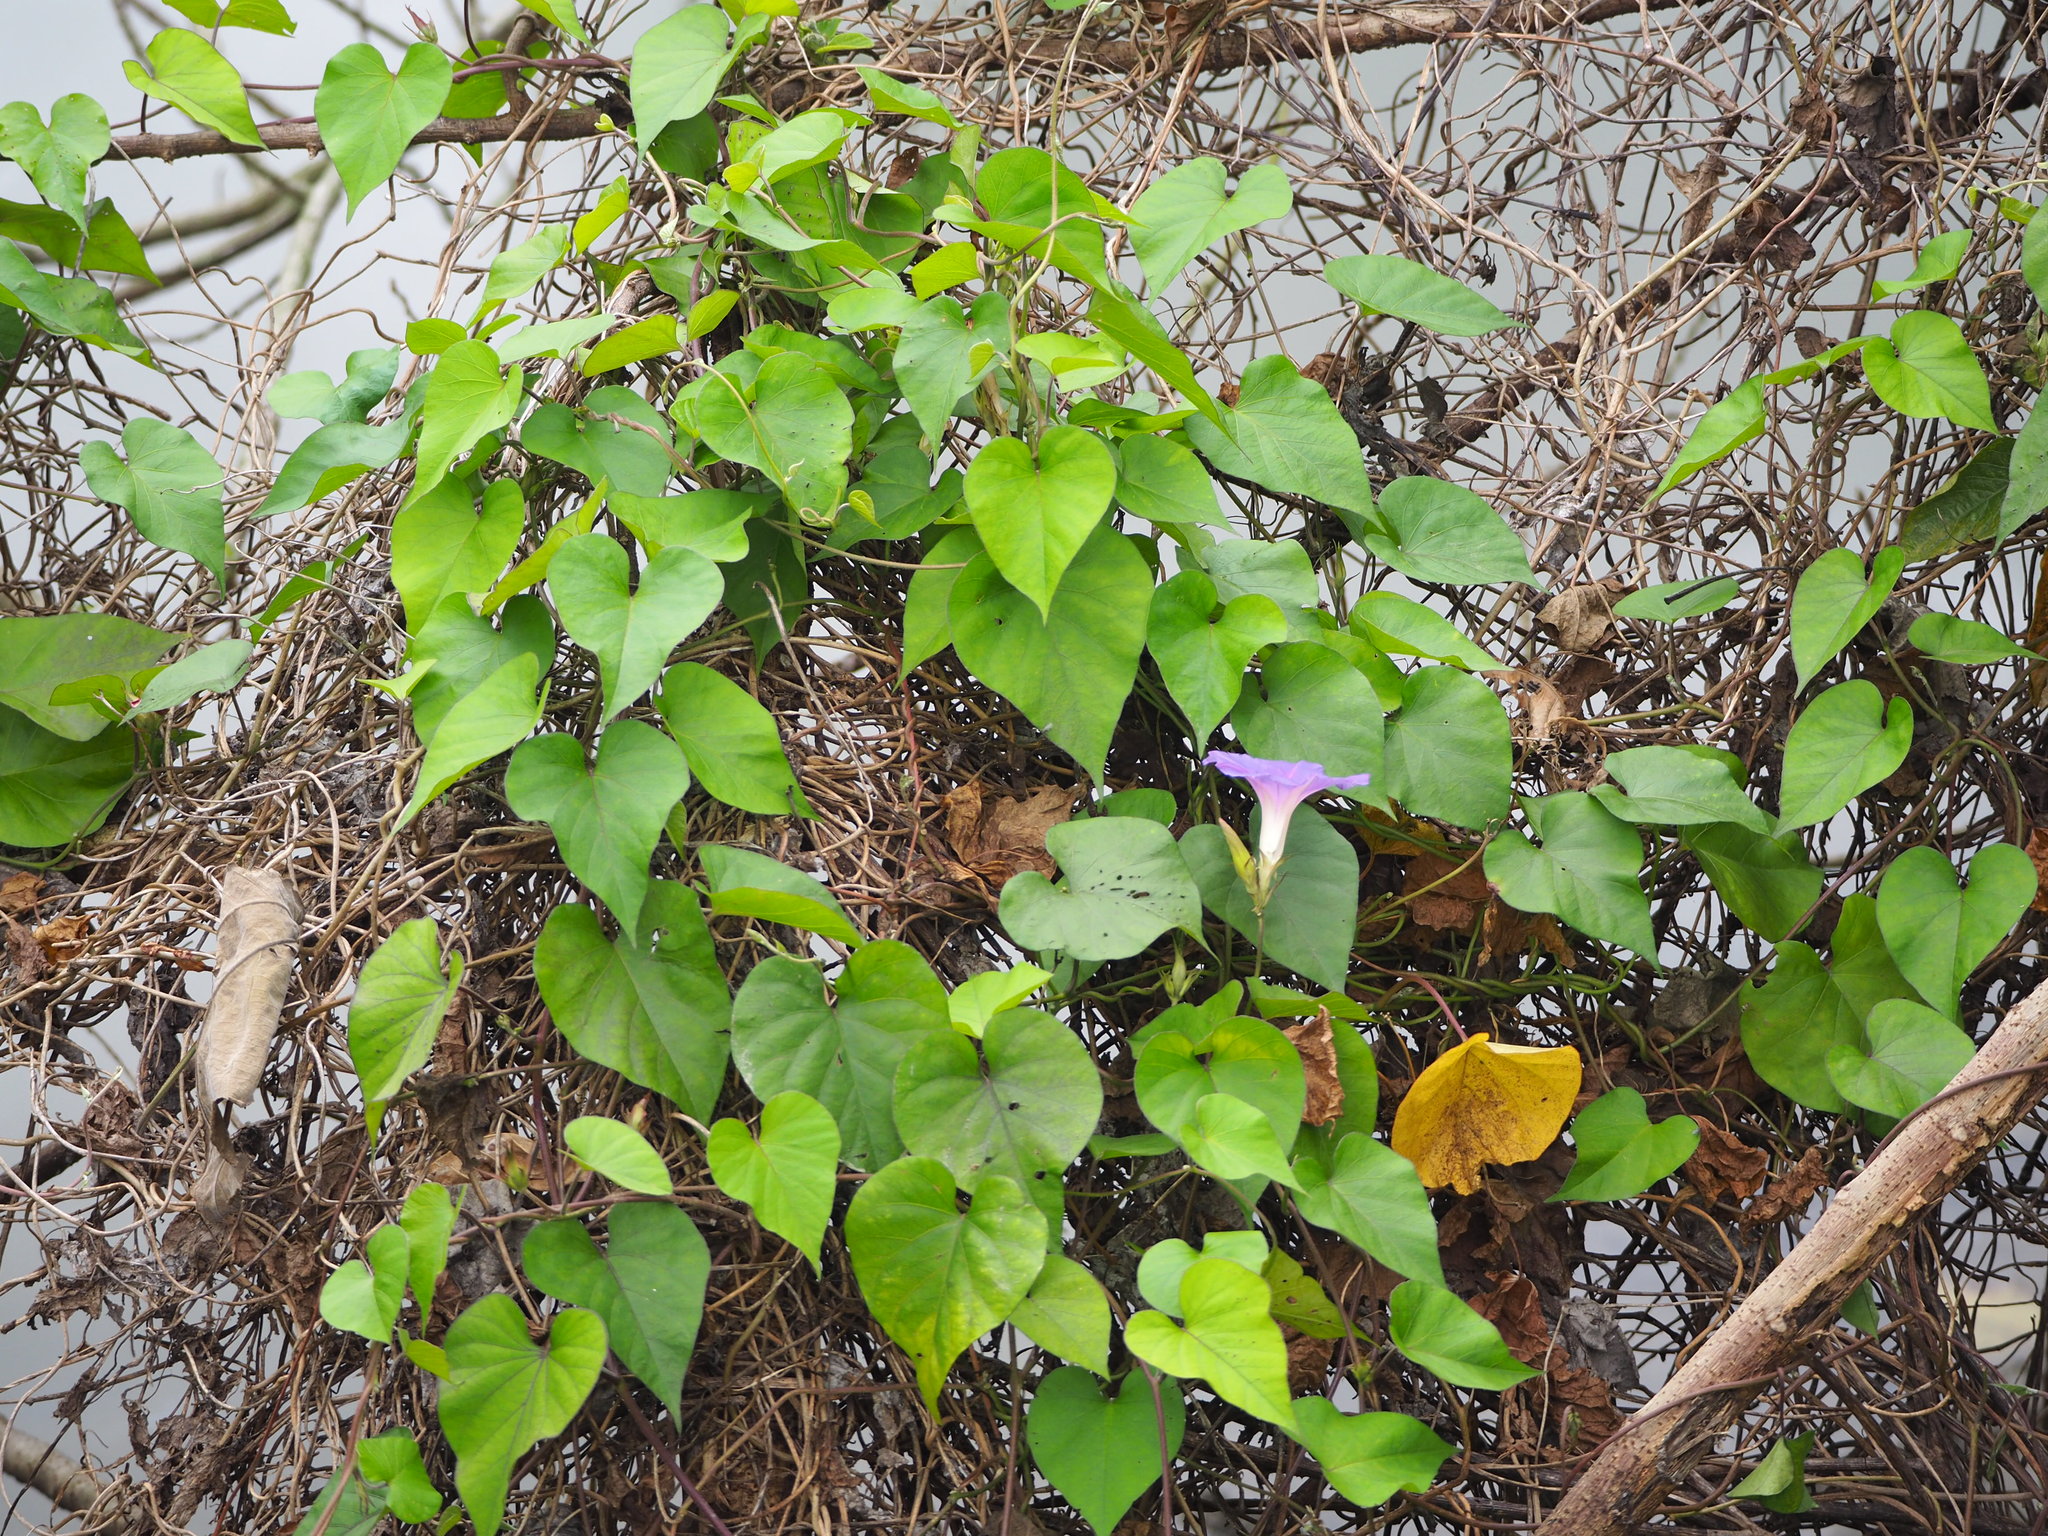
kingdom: Plantae
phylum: Tracheophyta
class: Magnoliopsida
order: Solanales
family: Convolvulaceae
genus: Ipomoea
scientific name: Ipomoea indica
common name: Blue dawnflower
